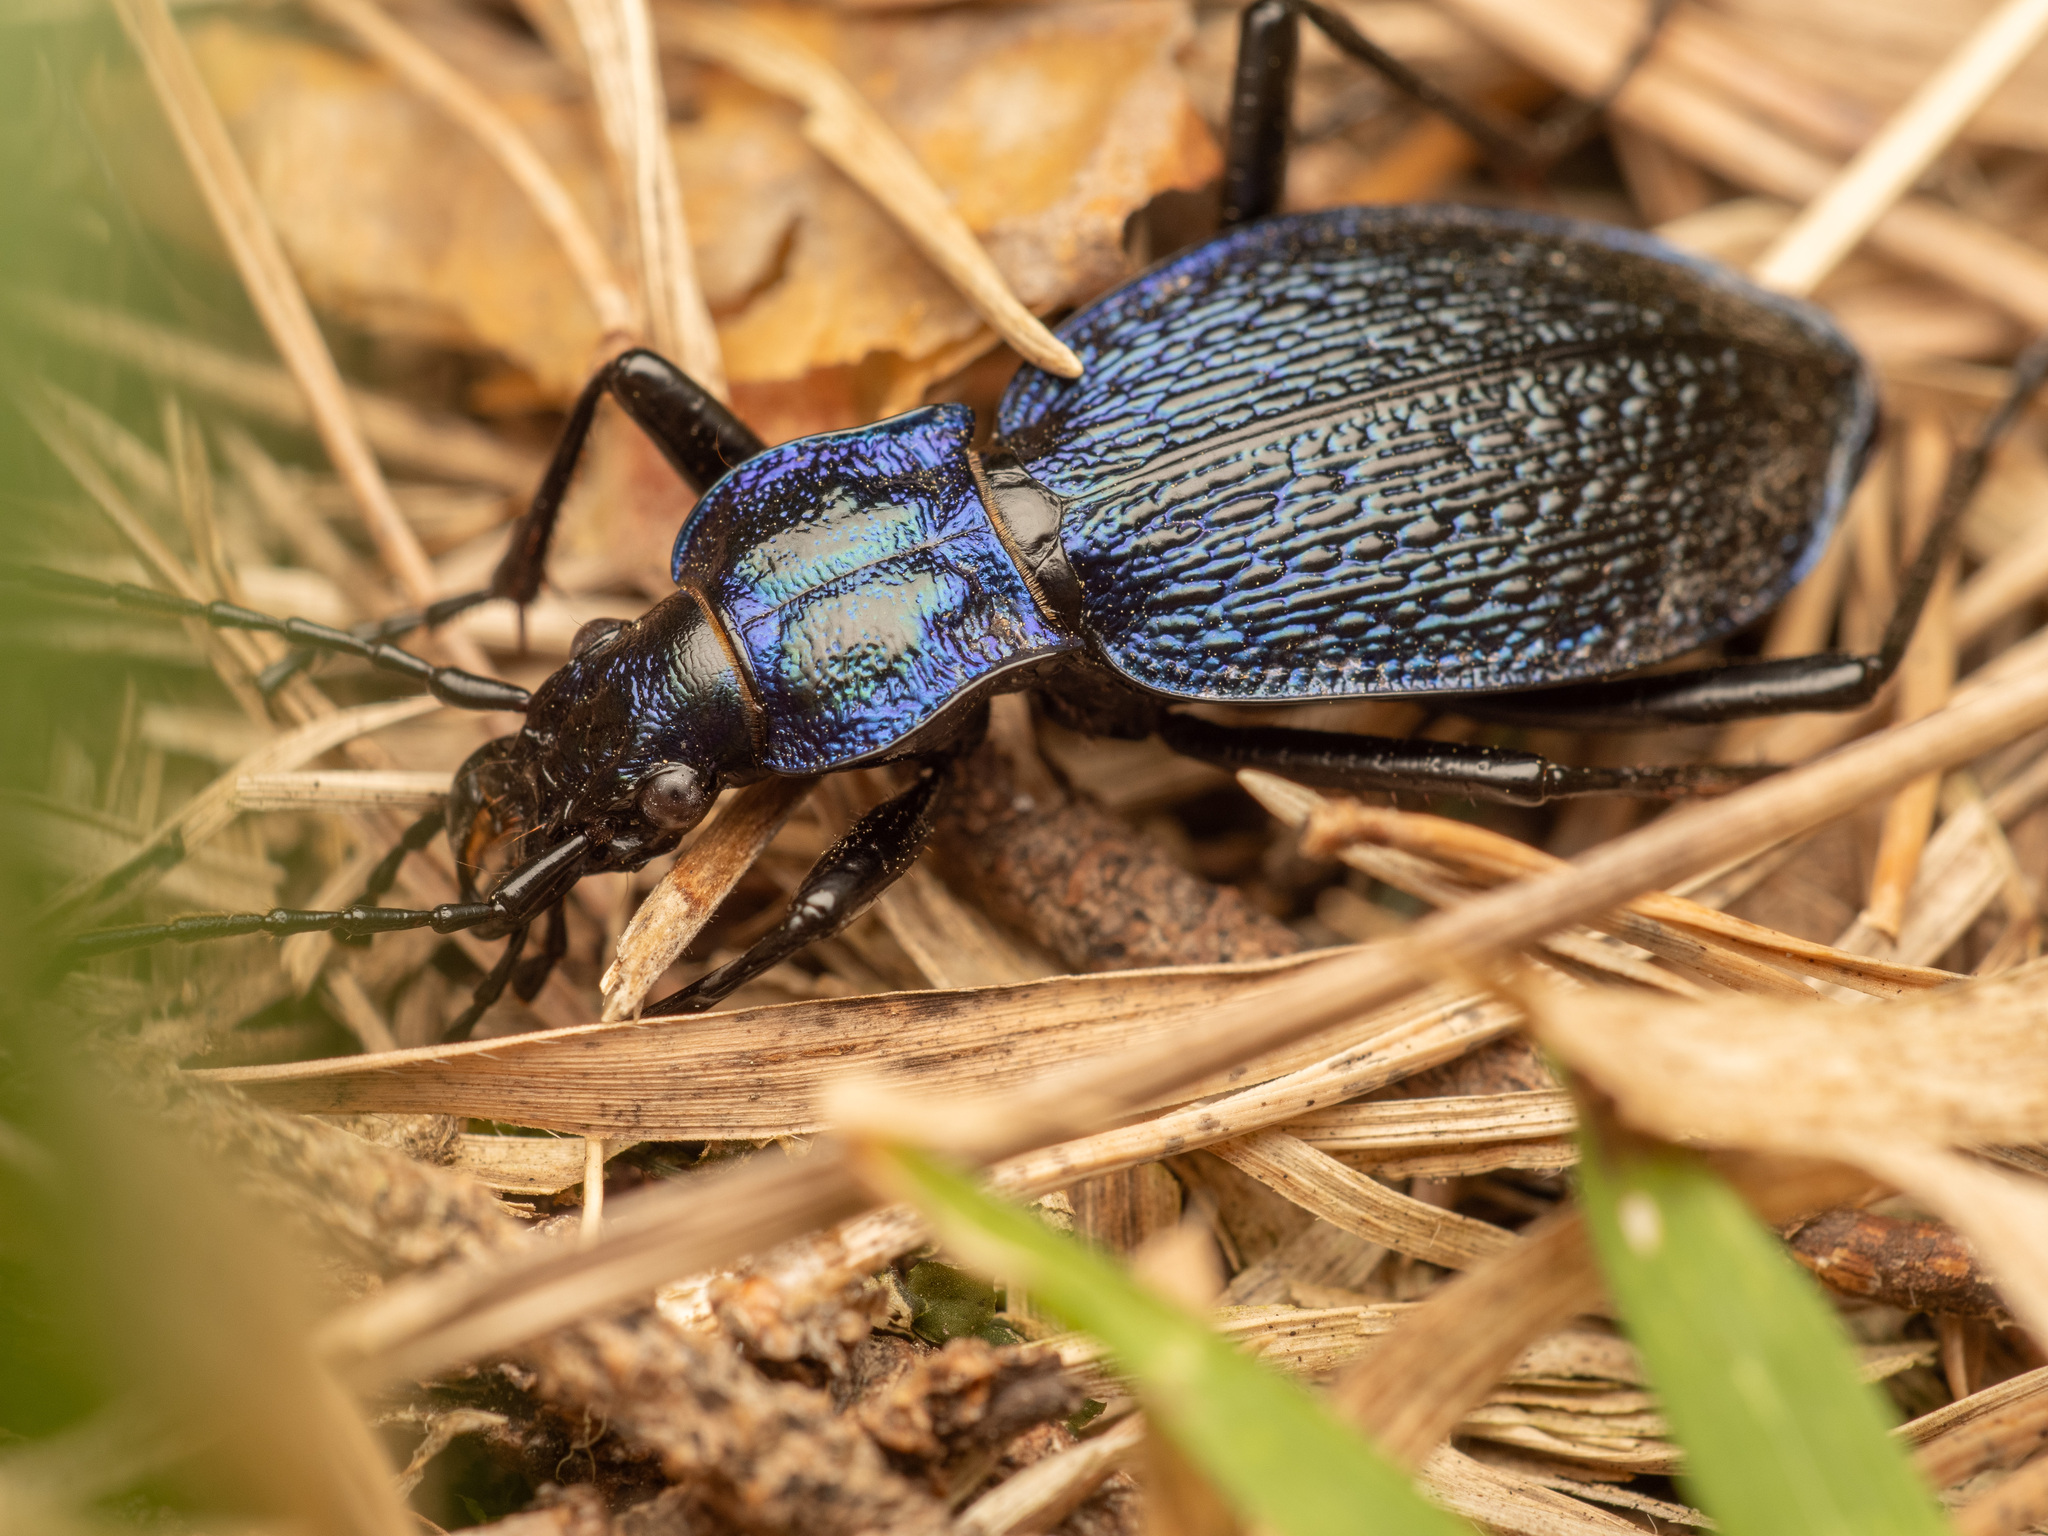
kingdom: Animalia
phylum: Arthropoda
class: Insecta
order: Coleoptera
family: Carabidae
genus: Carabus
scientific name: Carabus intricatus
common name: Blue ground beetle
